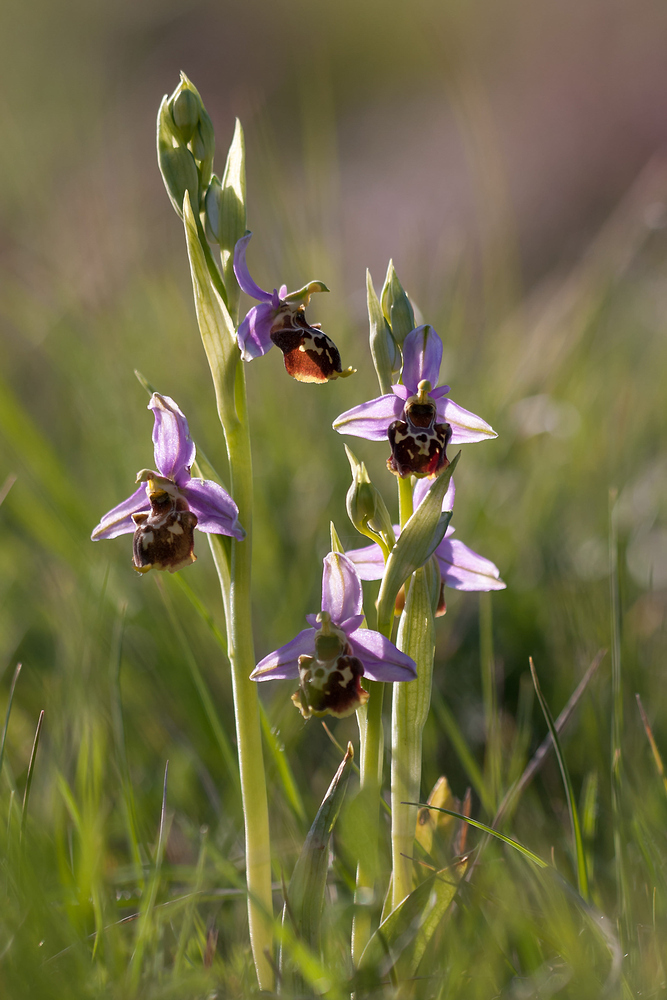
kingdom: Plantae
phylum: Tracheophyta
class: Liliopsida
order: Asparagales
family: Orchidaceae
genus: Ophrys
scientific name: Ophrys holosericea
